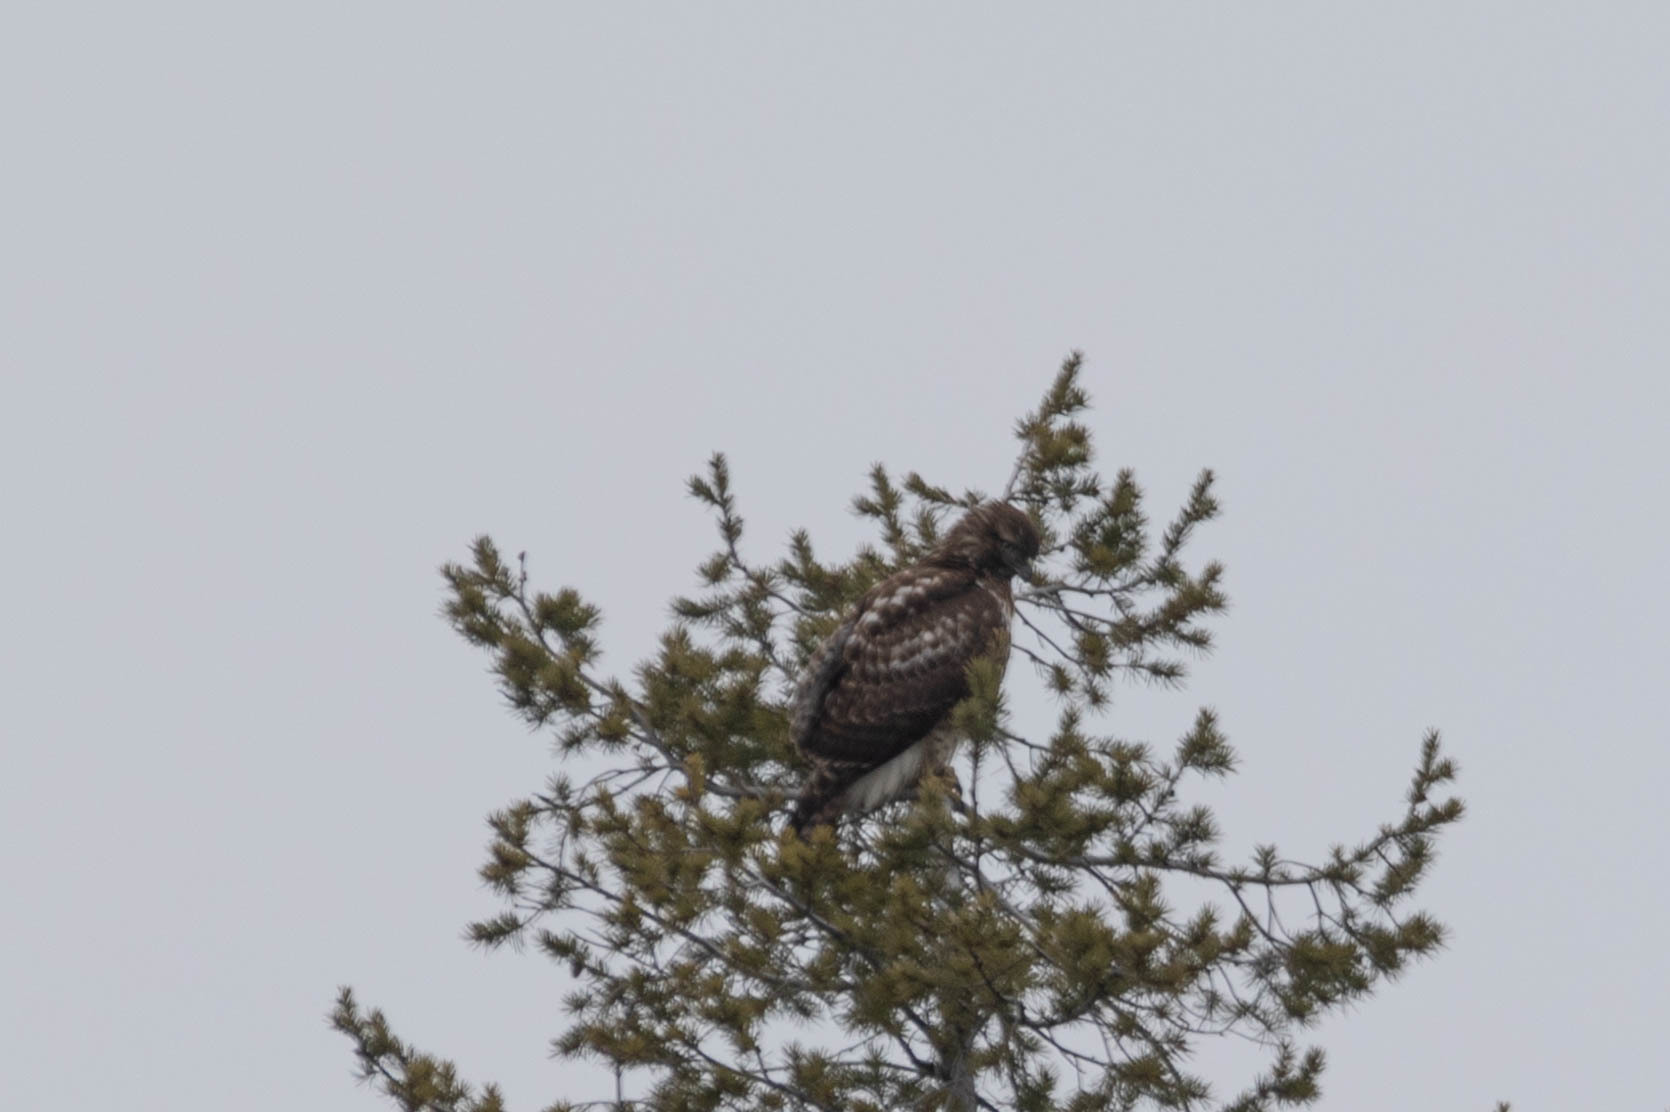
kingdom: Animalia
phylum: Chordata
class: Aves
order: Accipitriformes
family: Accipitridae
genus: Buteo
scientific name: Buteo jamaicensis
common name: Red-tailed hawk
